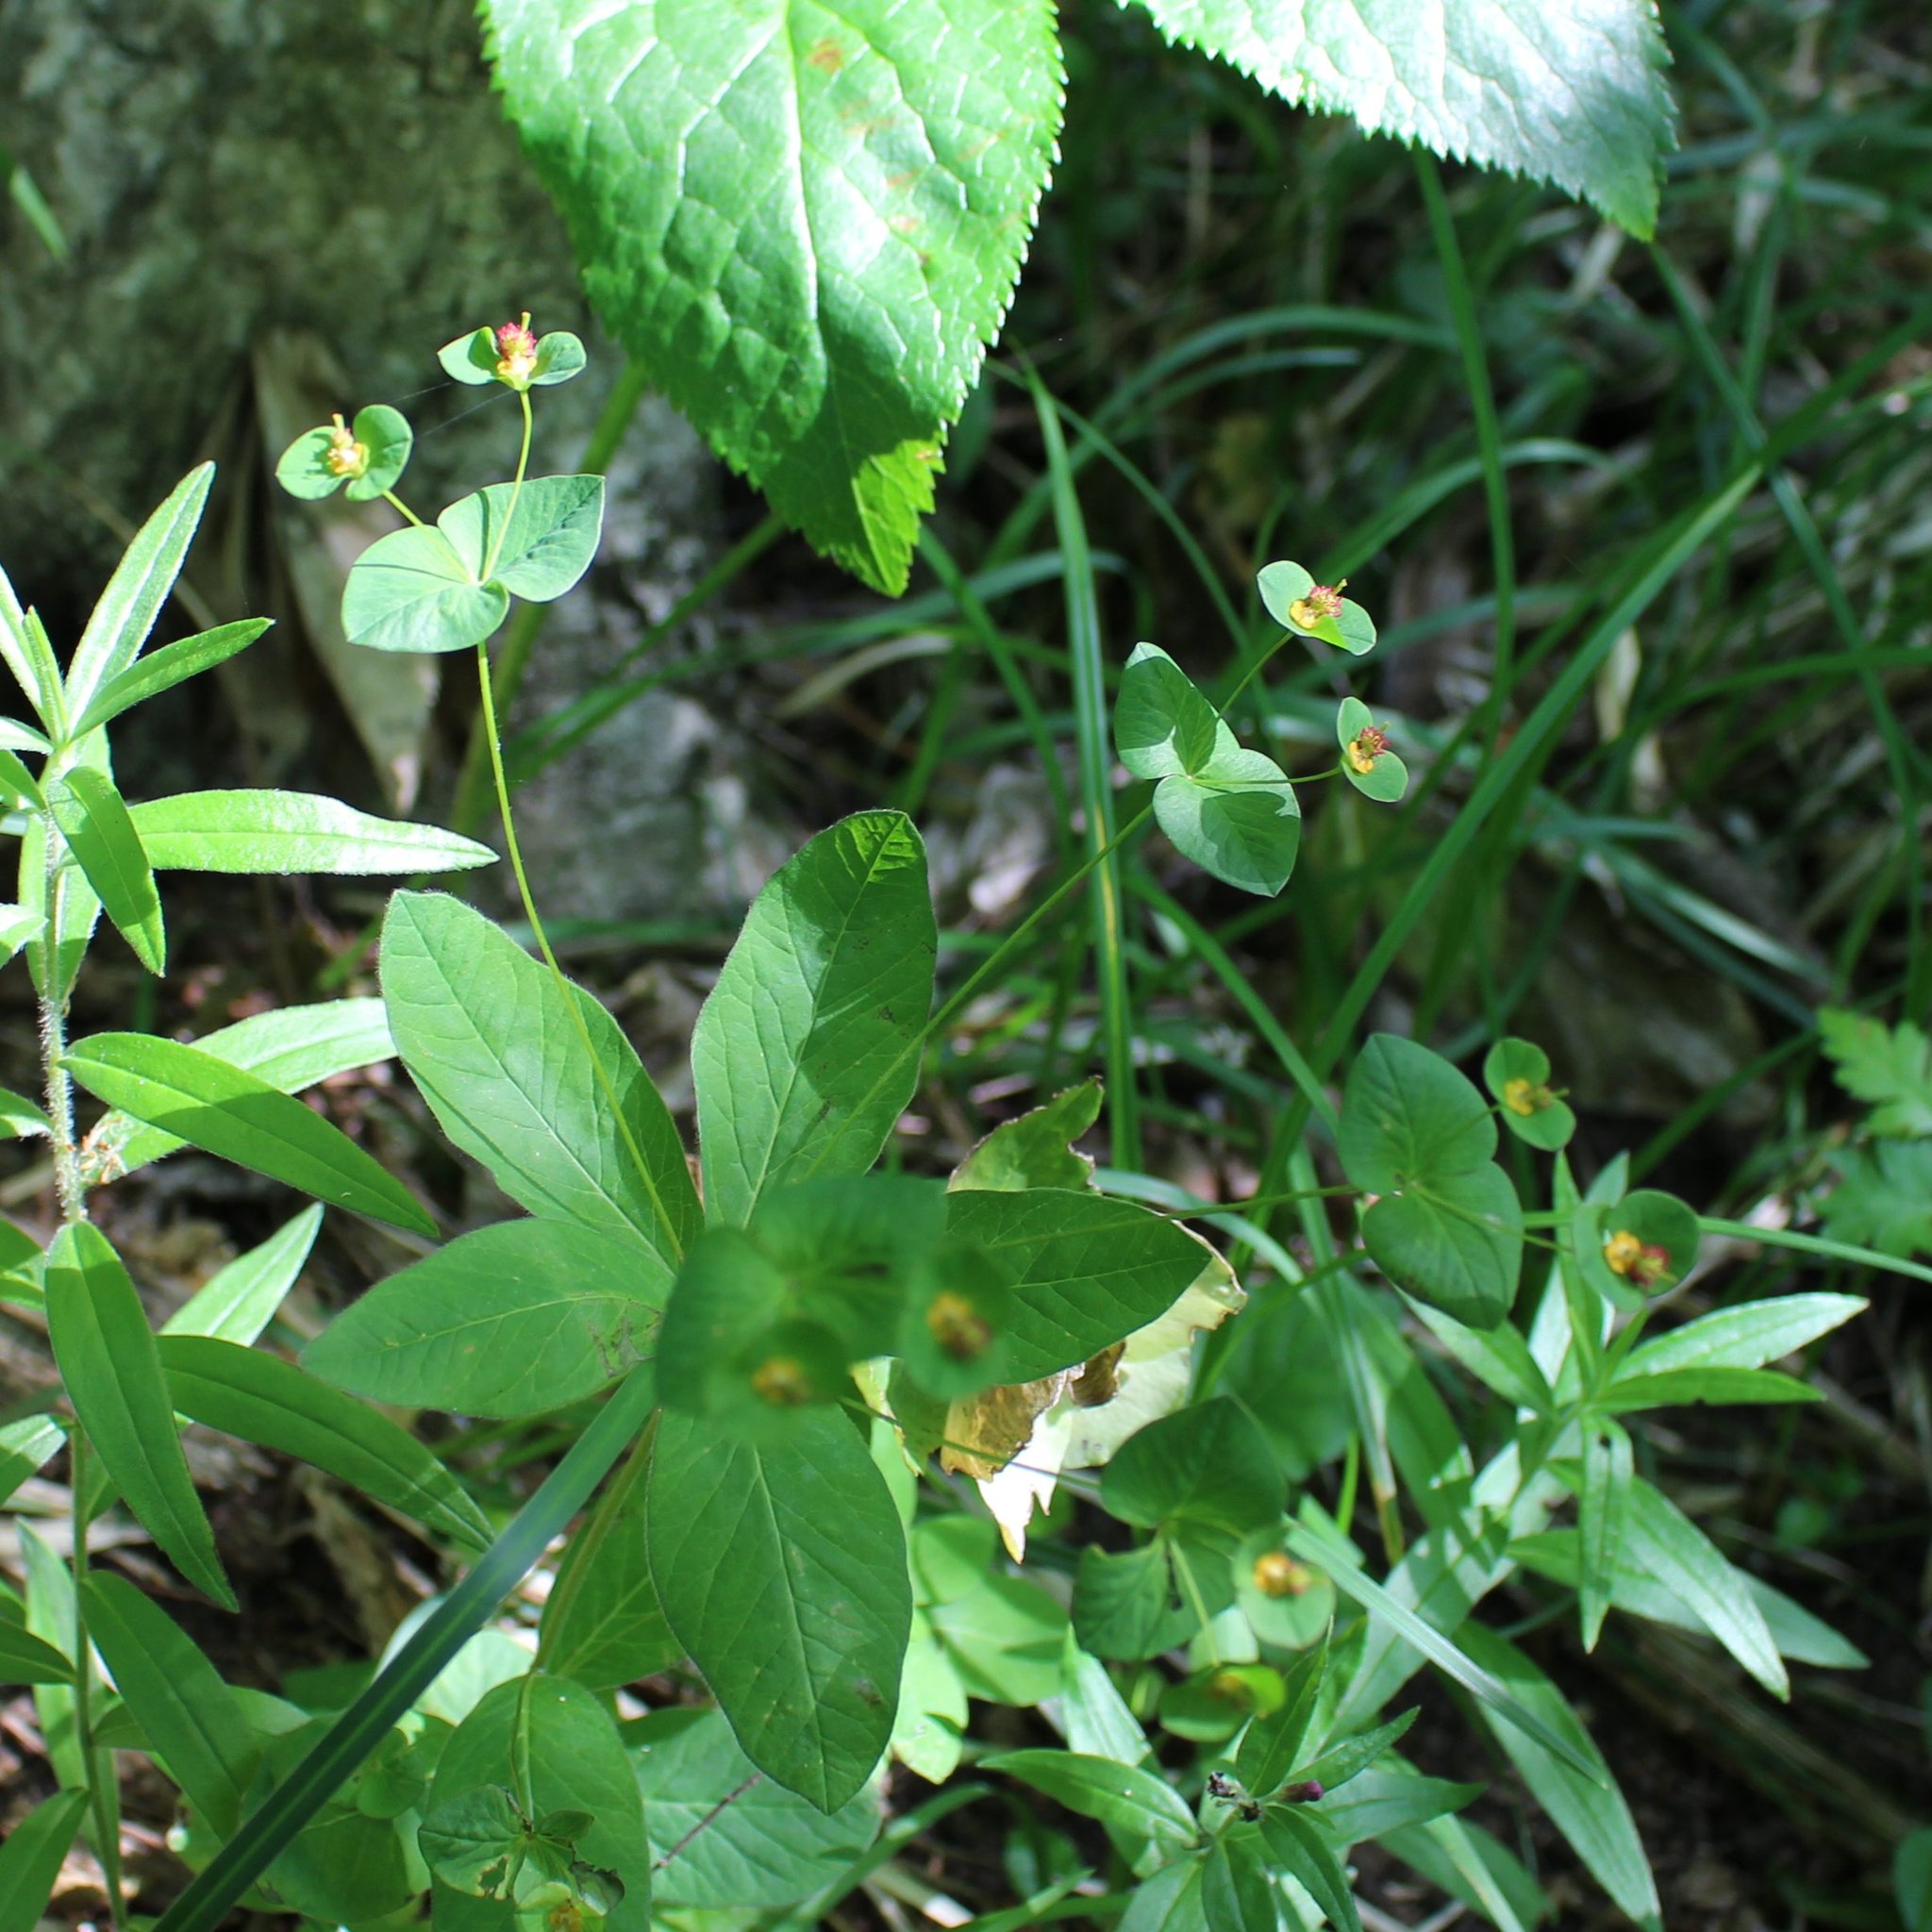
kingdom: Plantae
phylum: Tracheophyta
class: Magnoliopsida
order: Malpighiales
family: Euphorbiaceae
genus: Euphorbia
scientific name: Euphorbia squamosa
